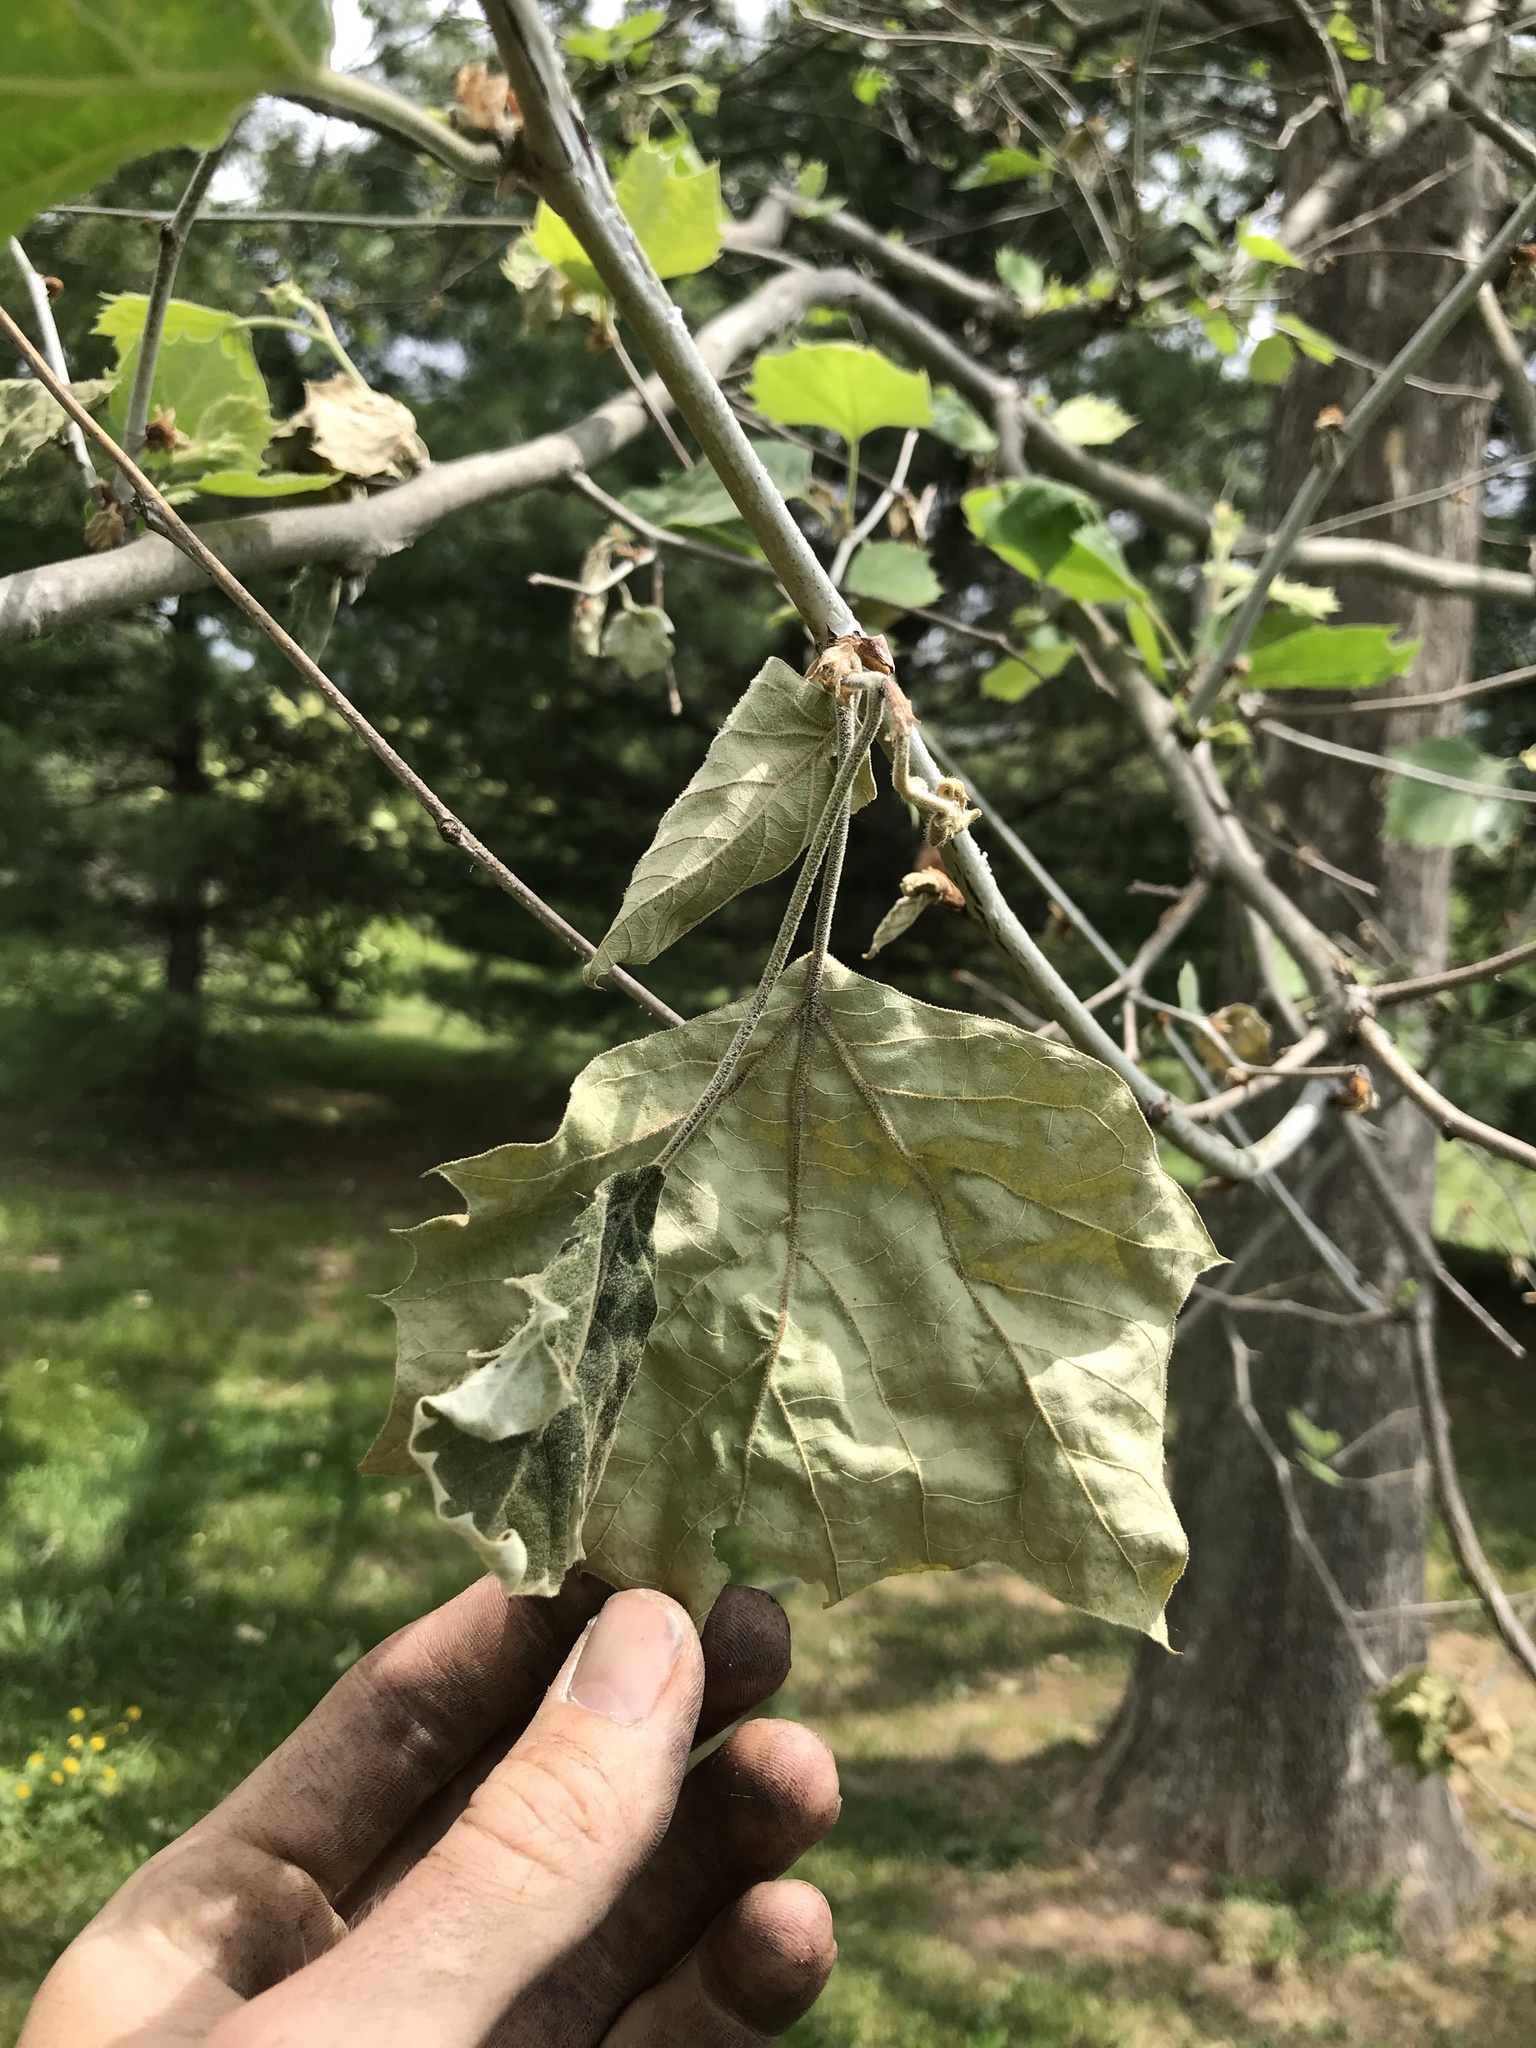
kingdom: Fungi
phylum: Ascomycota
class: Sordariomycetes
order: Diaporthales
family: Gnomoniaceae
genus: Apiognomonia
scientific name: Apiognomonia veneta
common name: Plane anthracnose
